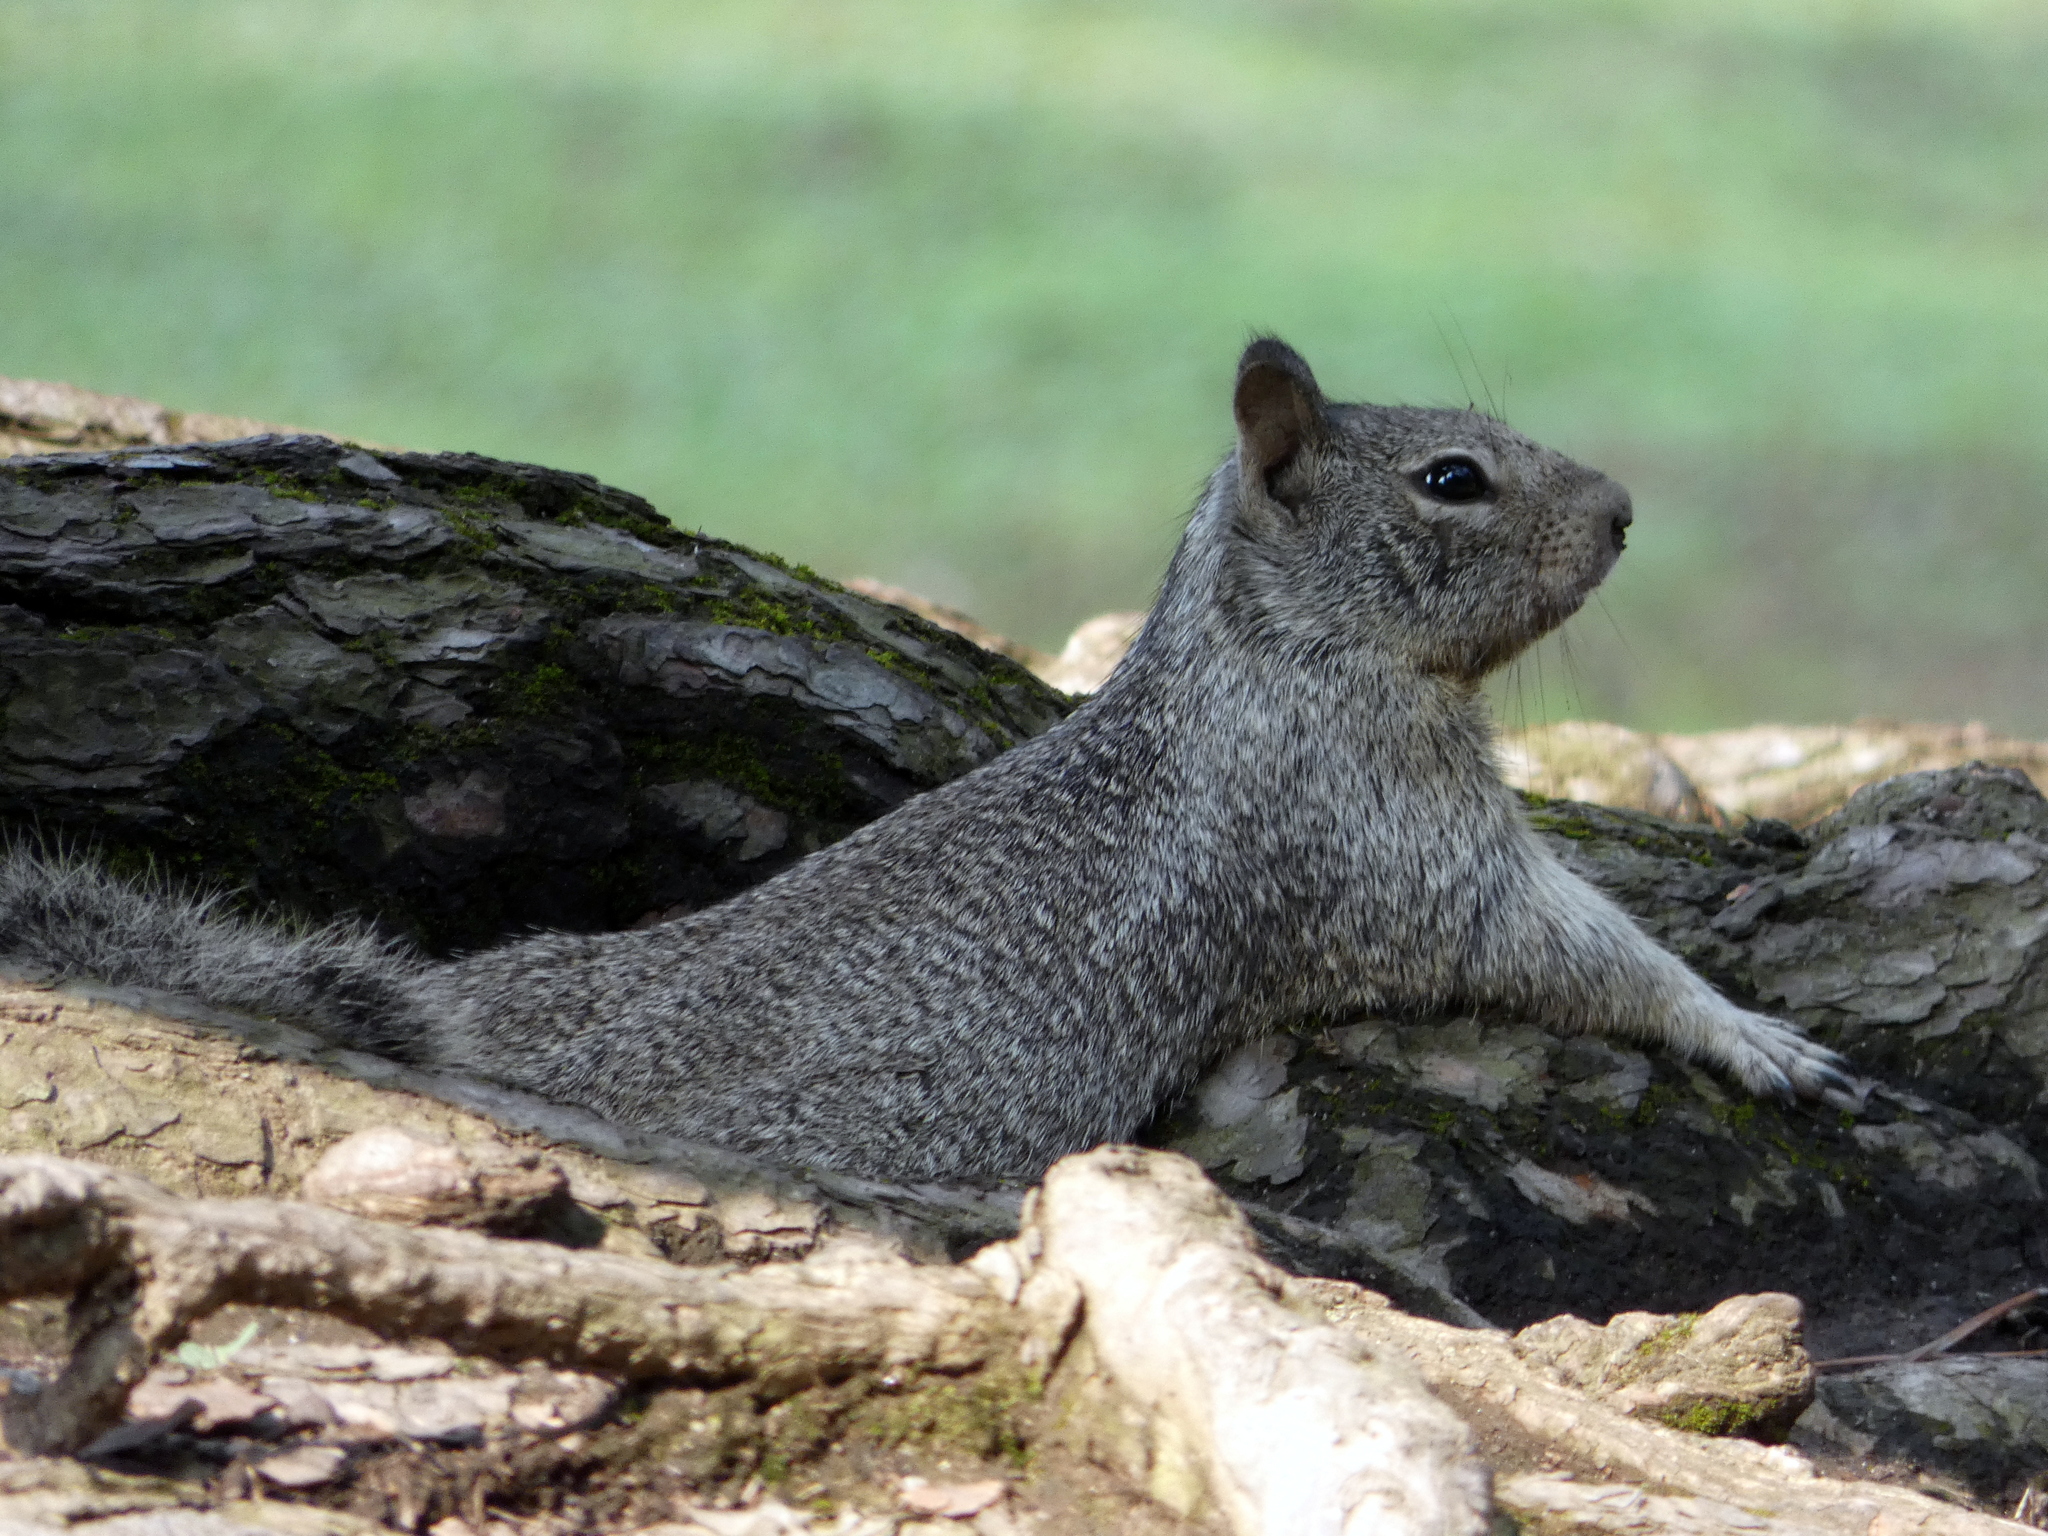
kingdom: Animalia
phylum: Chordata
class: Mammalia
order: Rodentia
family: Sciuridae
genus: Otospermophilus
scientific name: Otospermophilus beecheyi
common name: California ground squirrel
